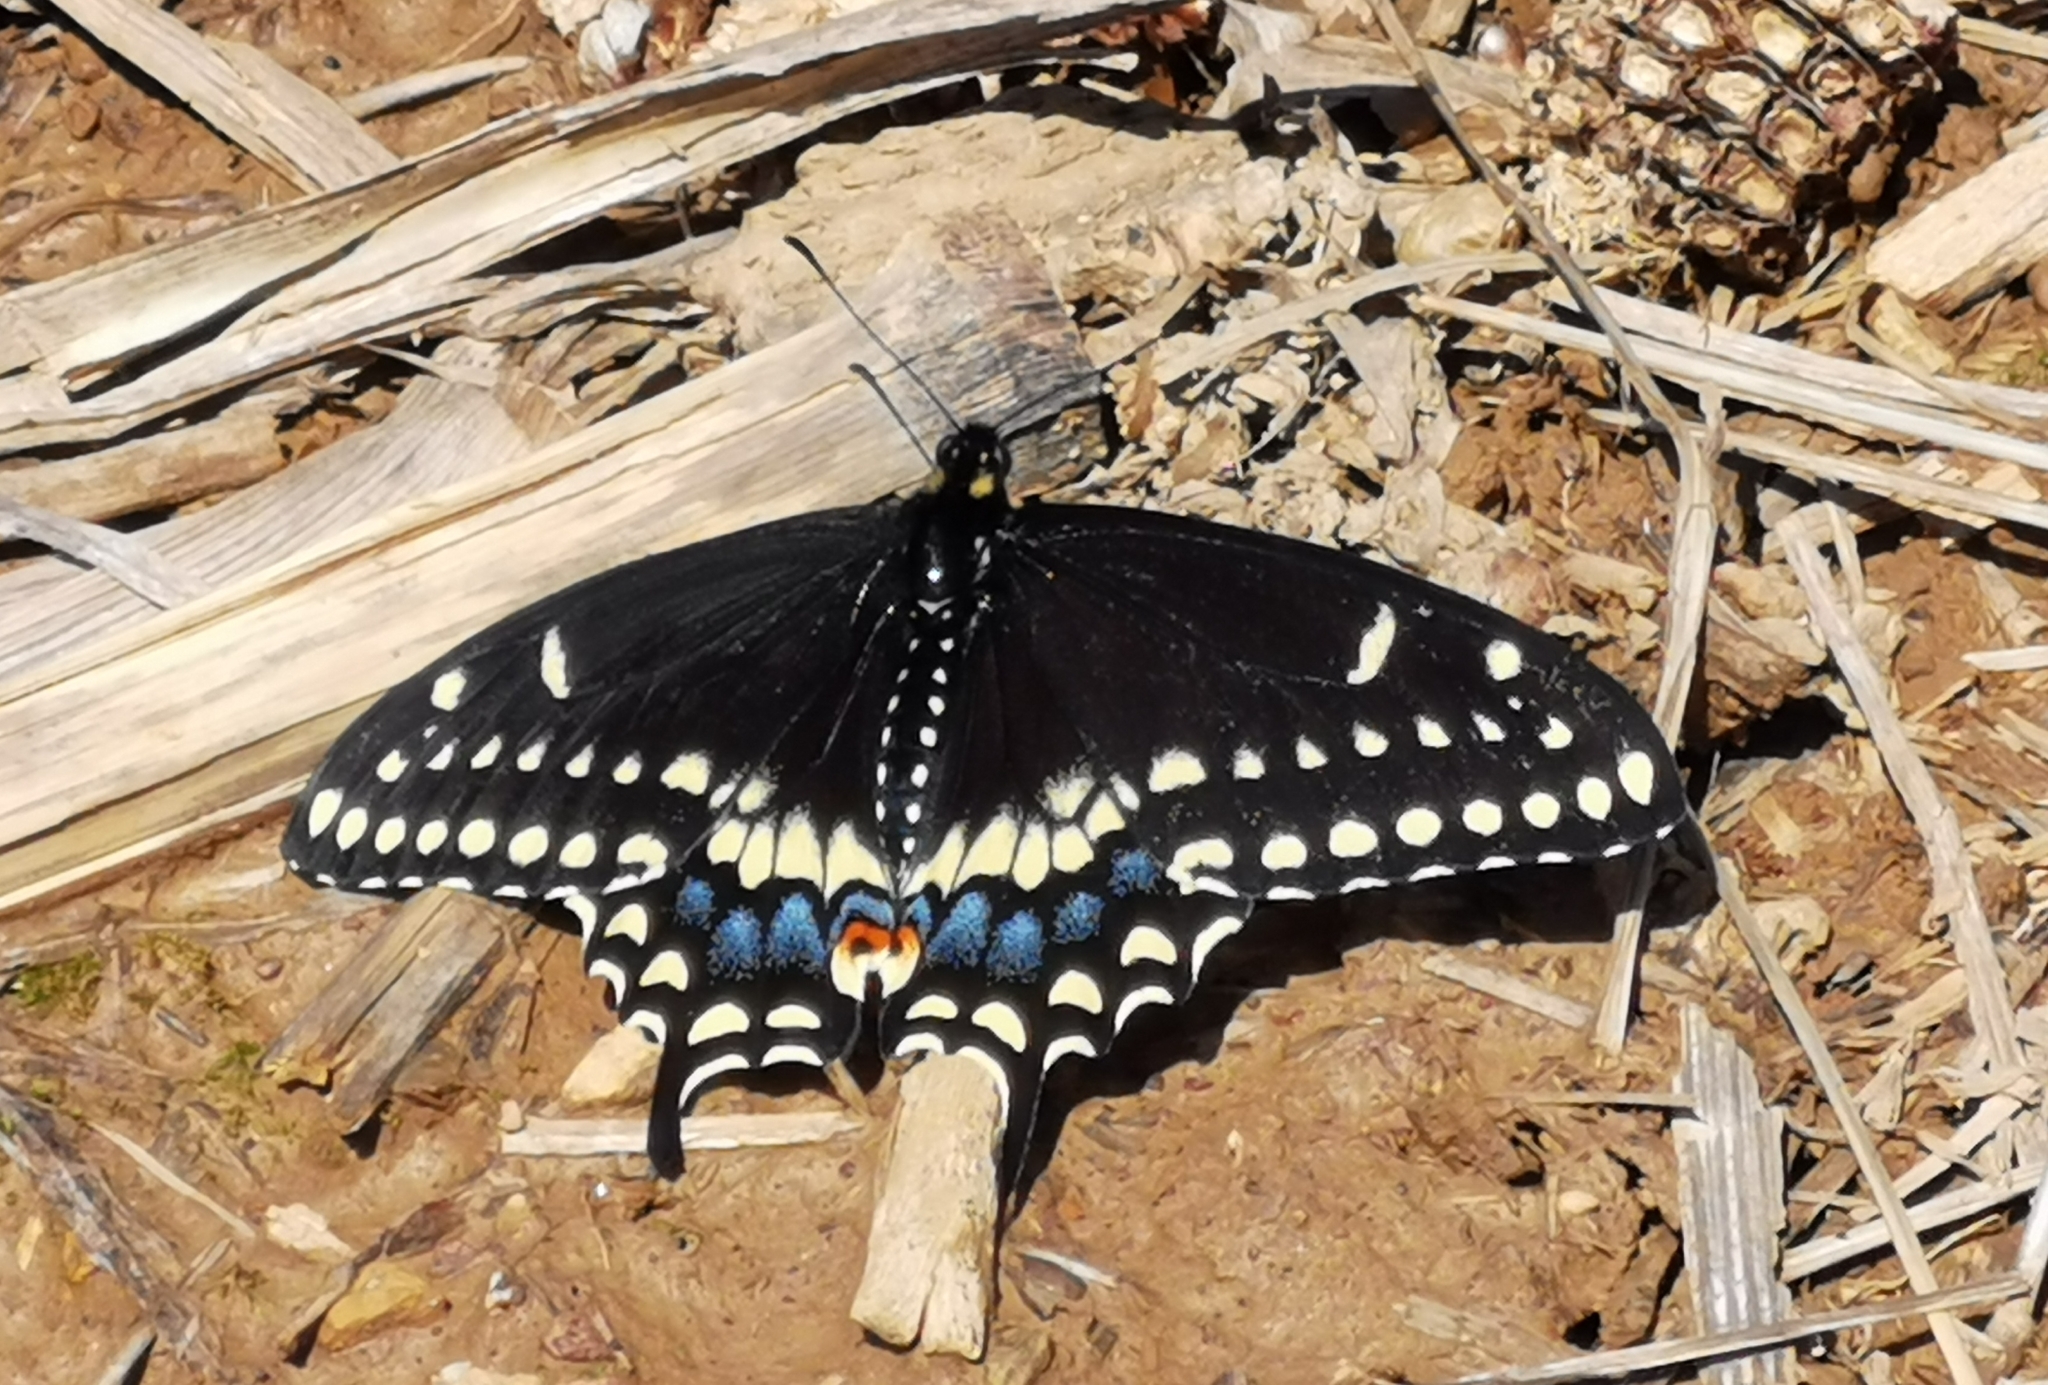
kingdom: Animalia
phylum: Arthropoda
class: Insecta
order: Lepidoptera
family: Papilionidae
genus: Papilio
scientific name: Papilio polyxenes
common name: Black swallowtail
